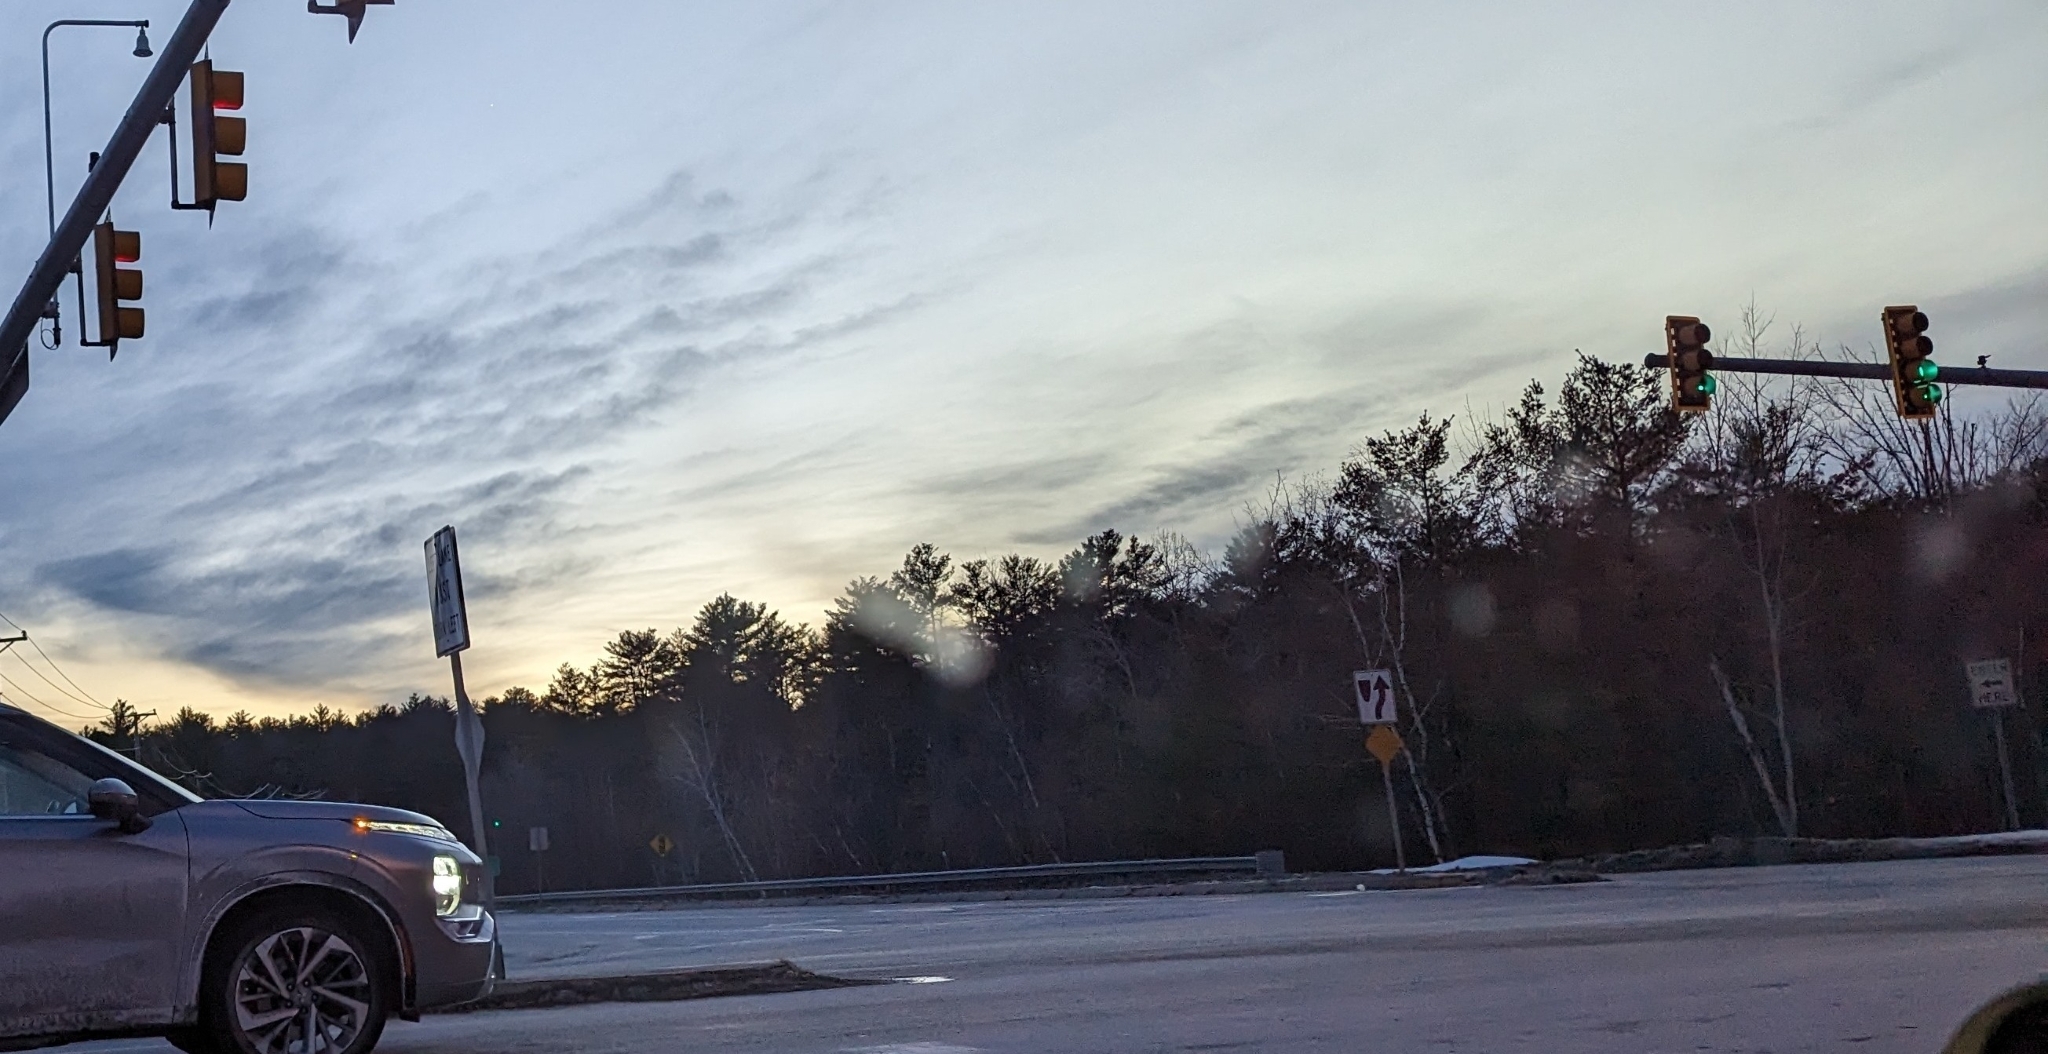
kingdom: Plantae
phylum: Tracheophyta
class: Pinopsida
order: Pinales
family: Pinaceae
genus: Pinus
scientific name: Pinus strobus
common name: Weymouth pine
